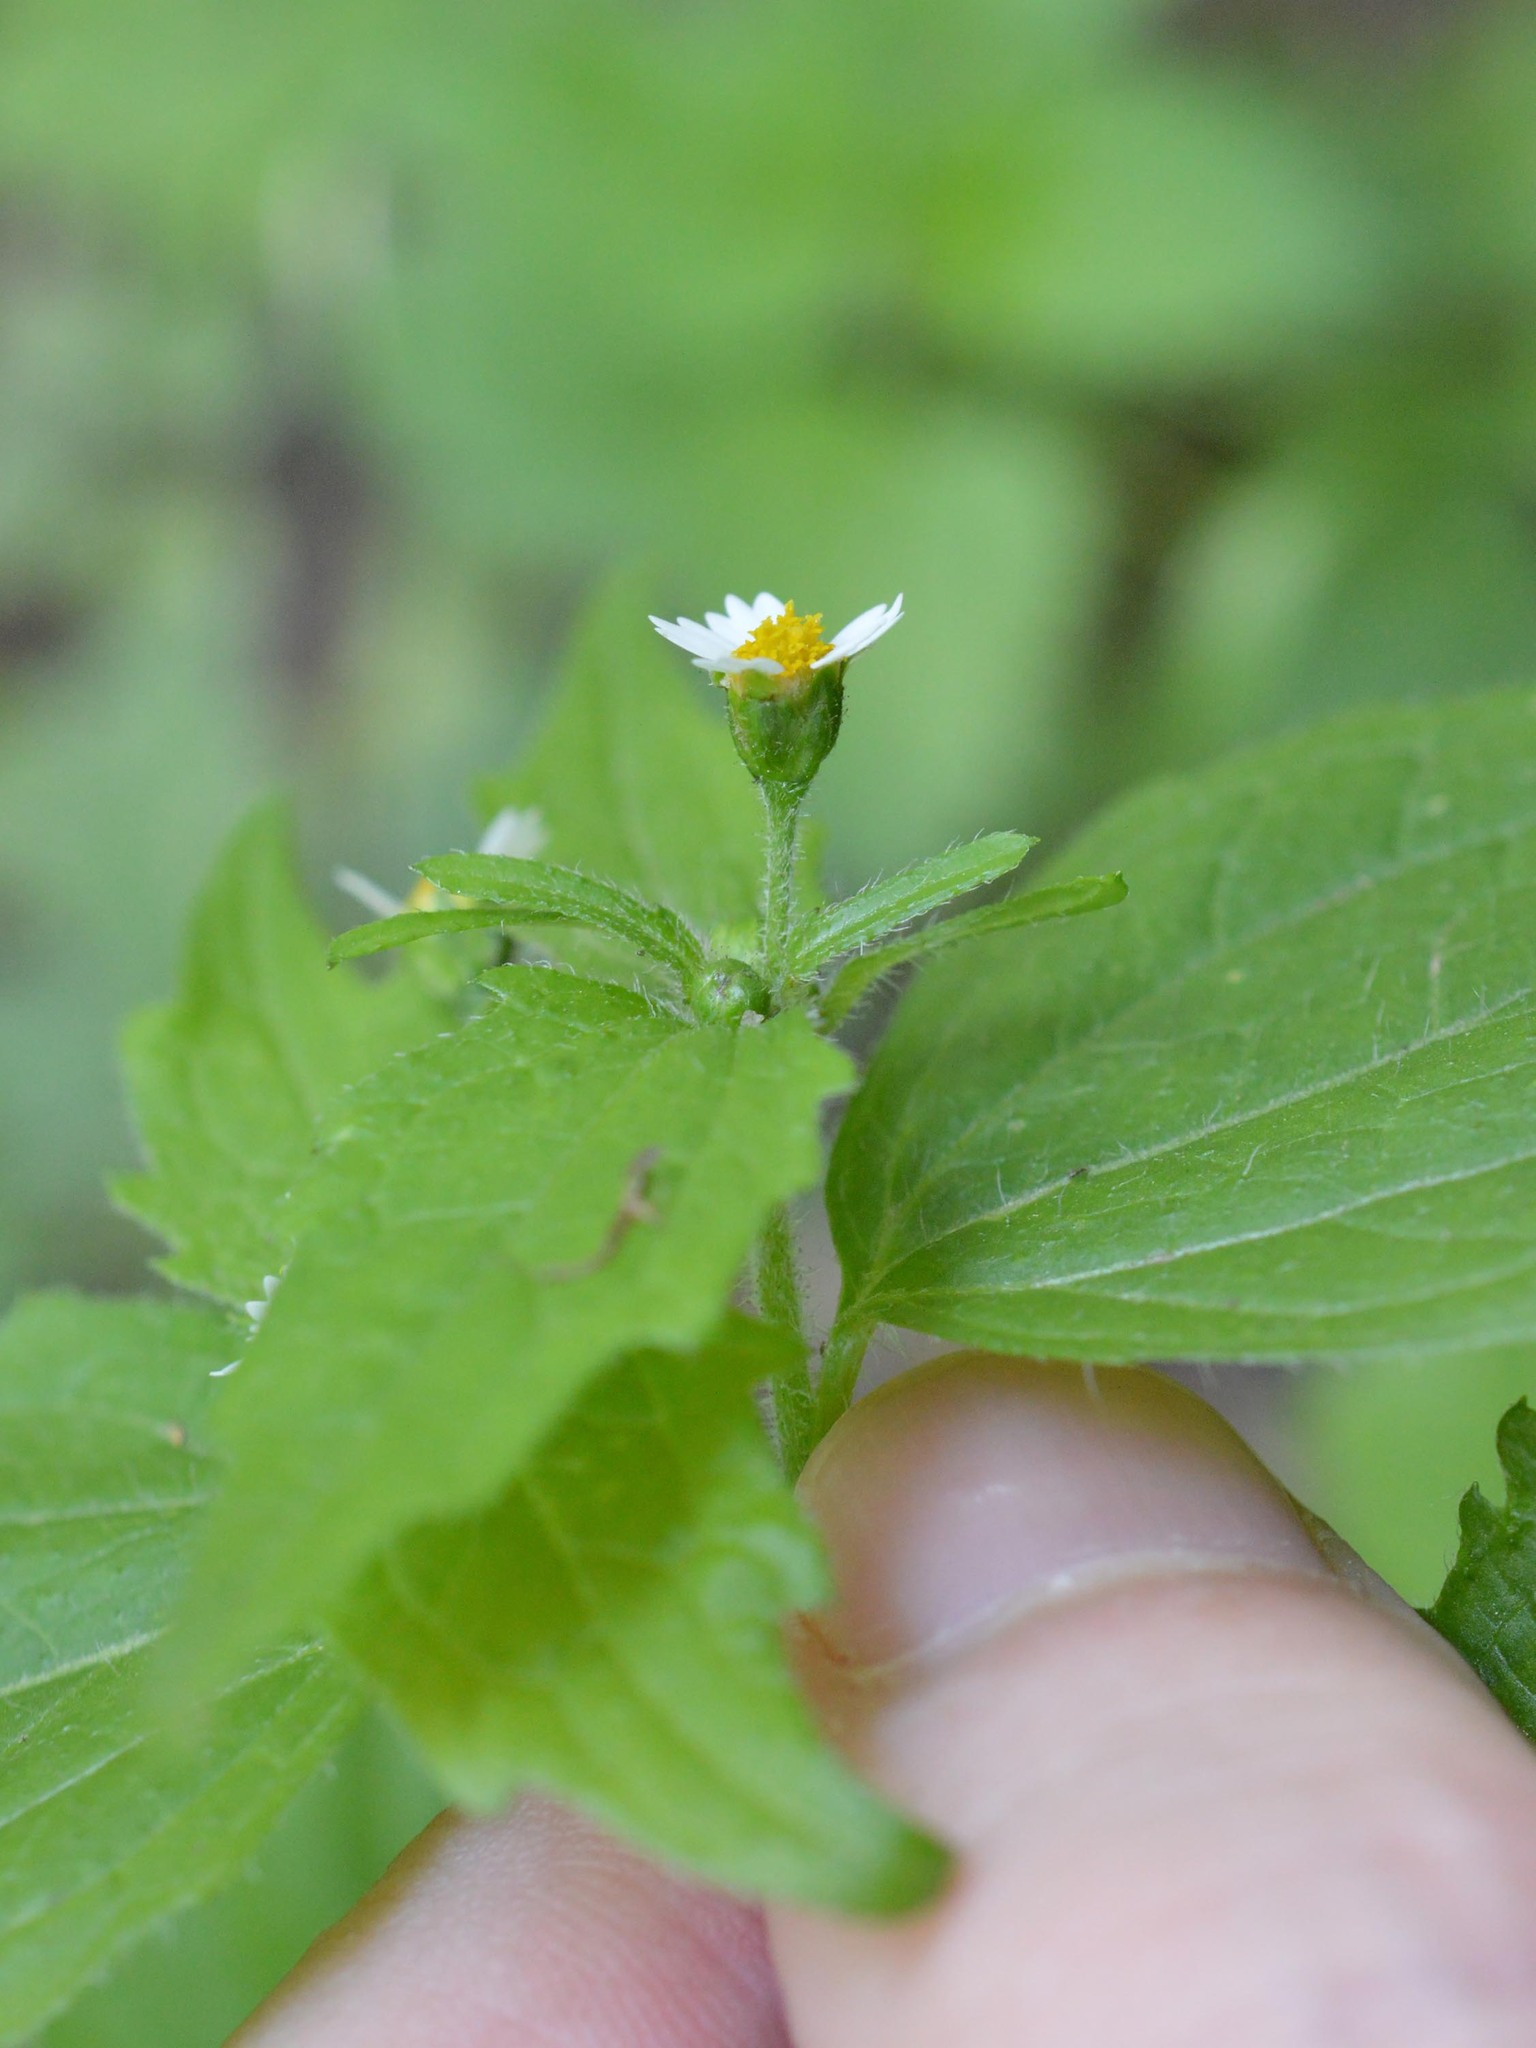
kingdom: Plantae
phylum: Tracheophyta
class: Magnoliopsida
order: Asterales
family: Asteraceae
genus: Galinsoga
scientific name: Galinsoga quadriradiata
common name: Shaggy soldier
